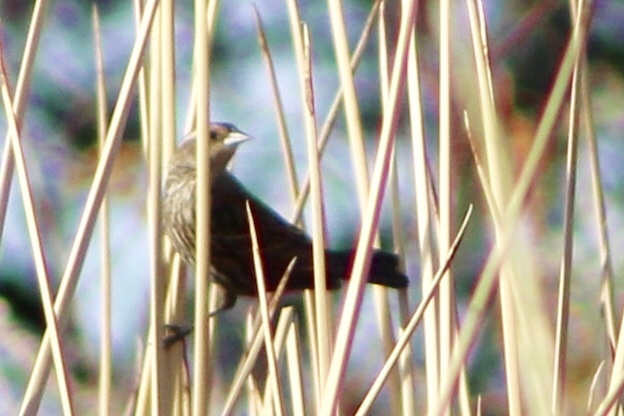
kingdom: Animalia
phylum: Chordata
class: Aves
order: Passeriformes
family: Icteridae
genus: Agelaius
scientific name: Agelaius phoeniceus
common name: Red-winged blackbird
